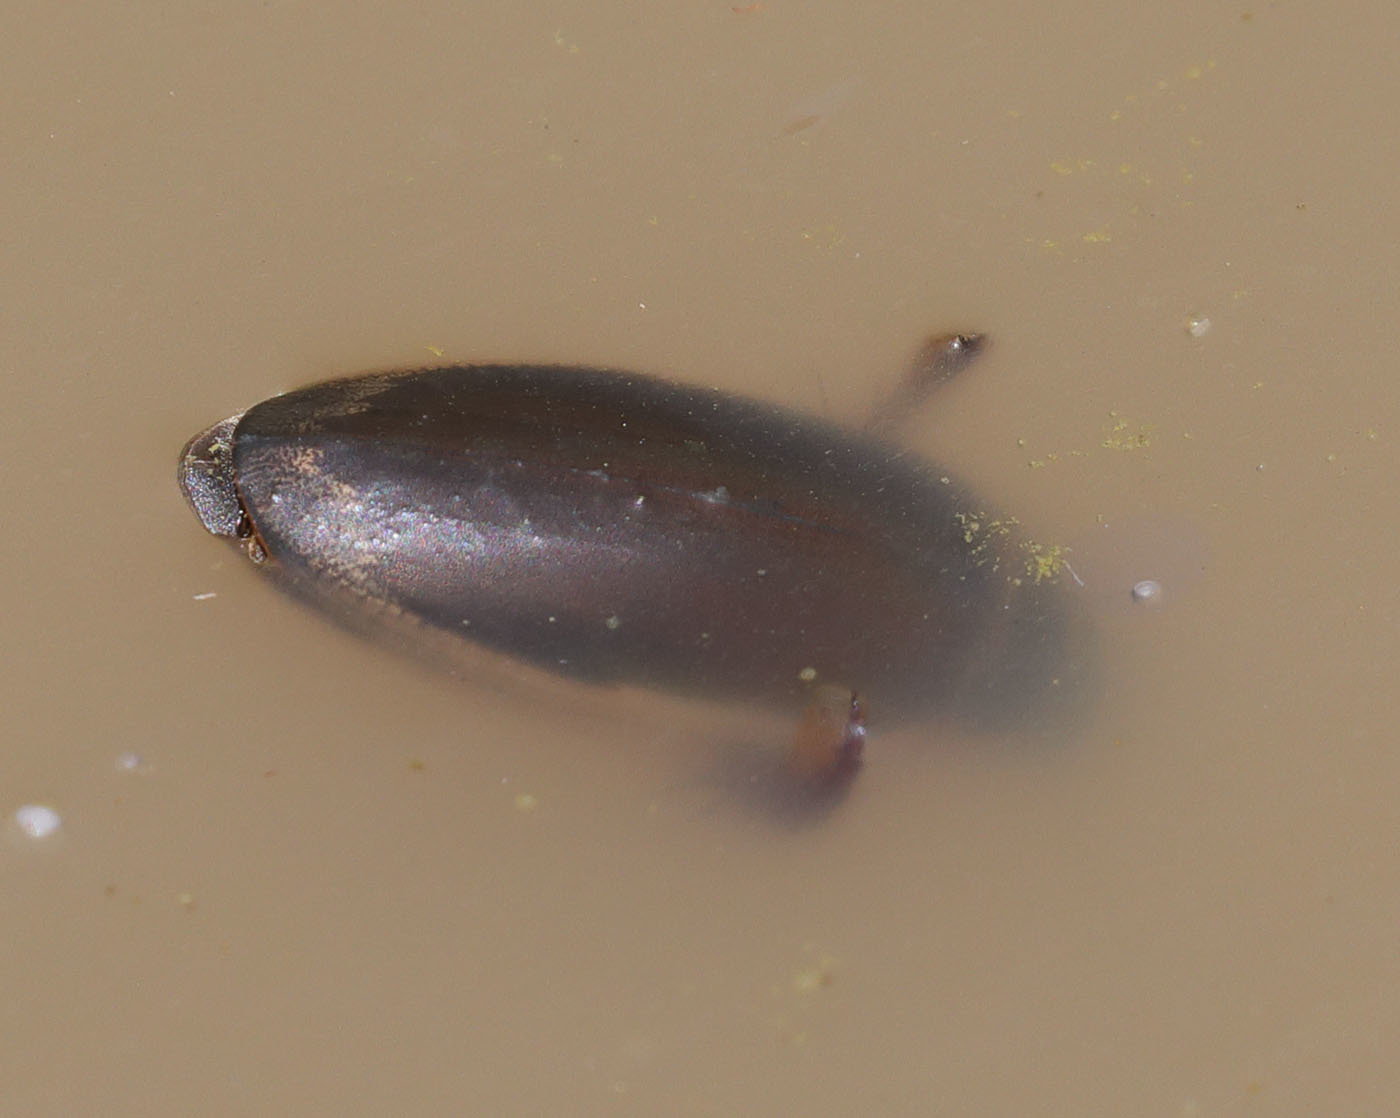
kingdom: Animalia
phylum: Arthropoda
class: Insecta
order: Coleoptera
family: Dytiscidae
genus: Dytiscus
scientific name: Dytiscus
